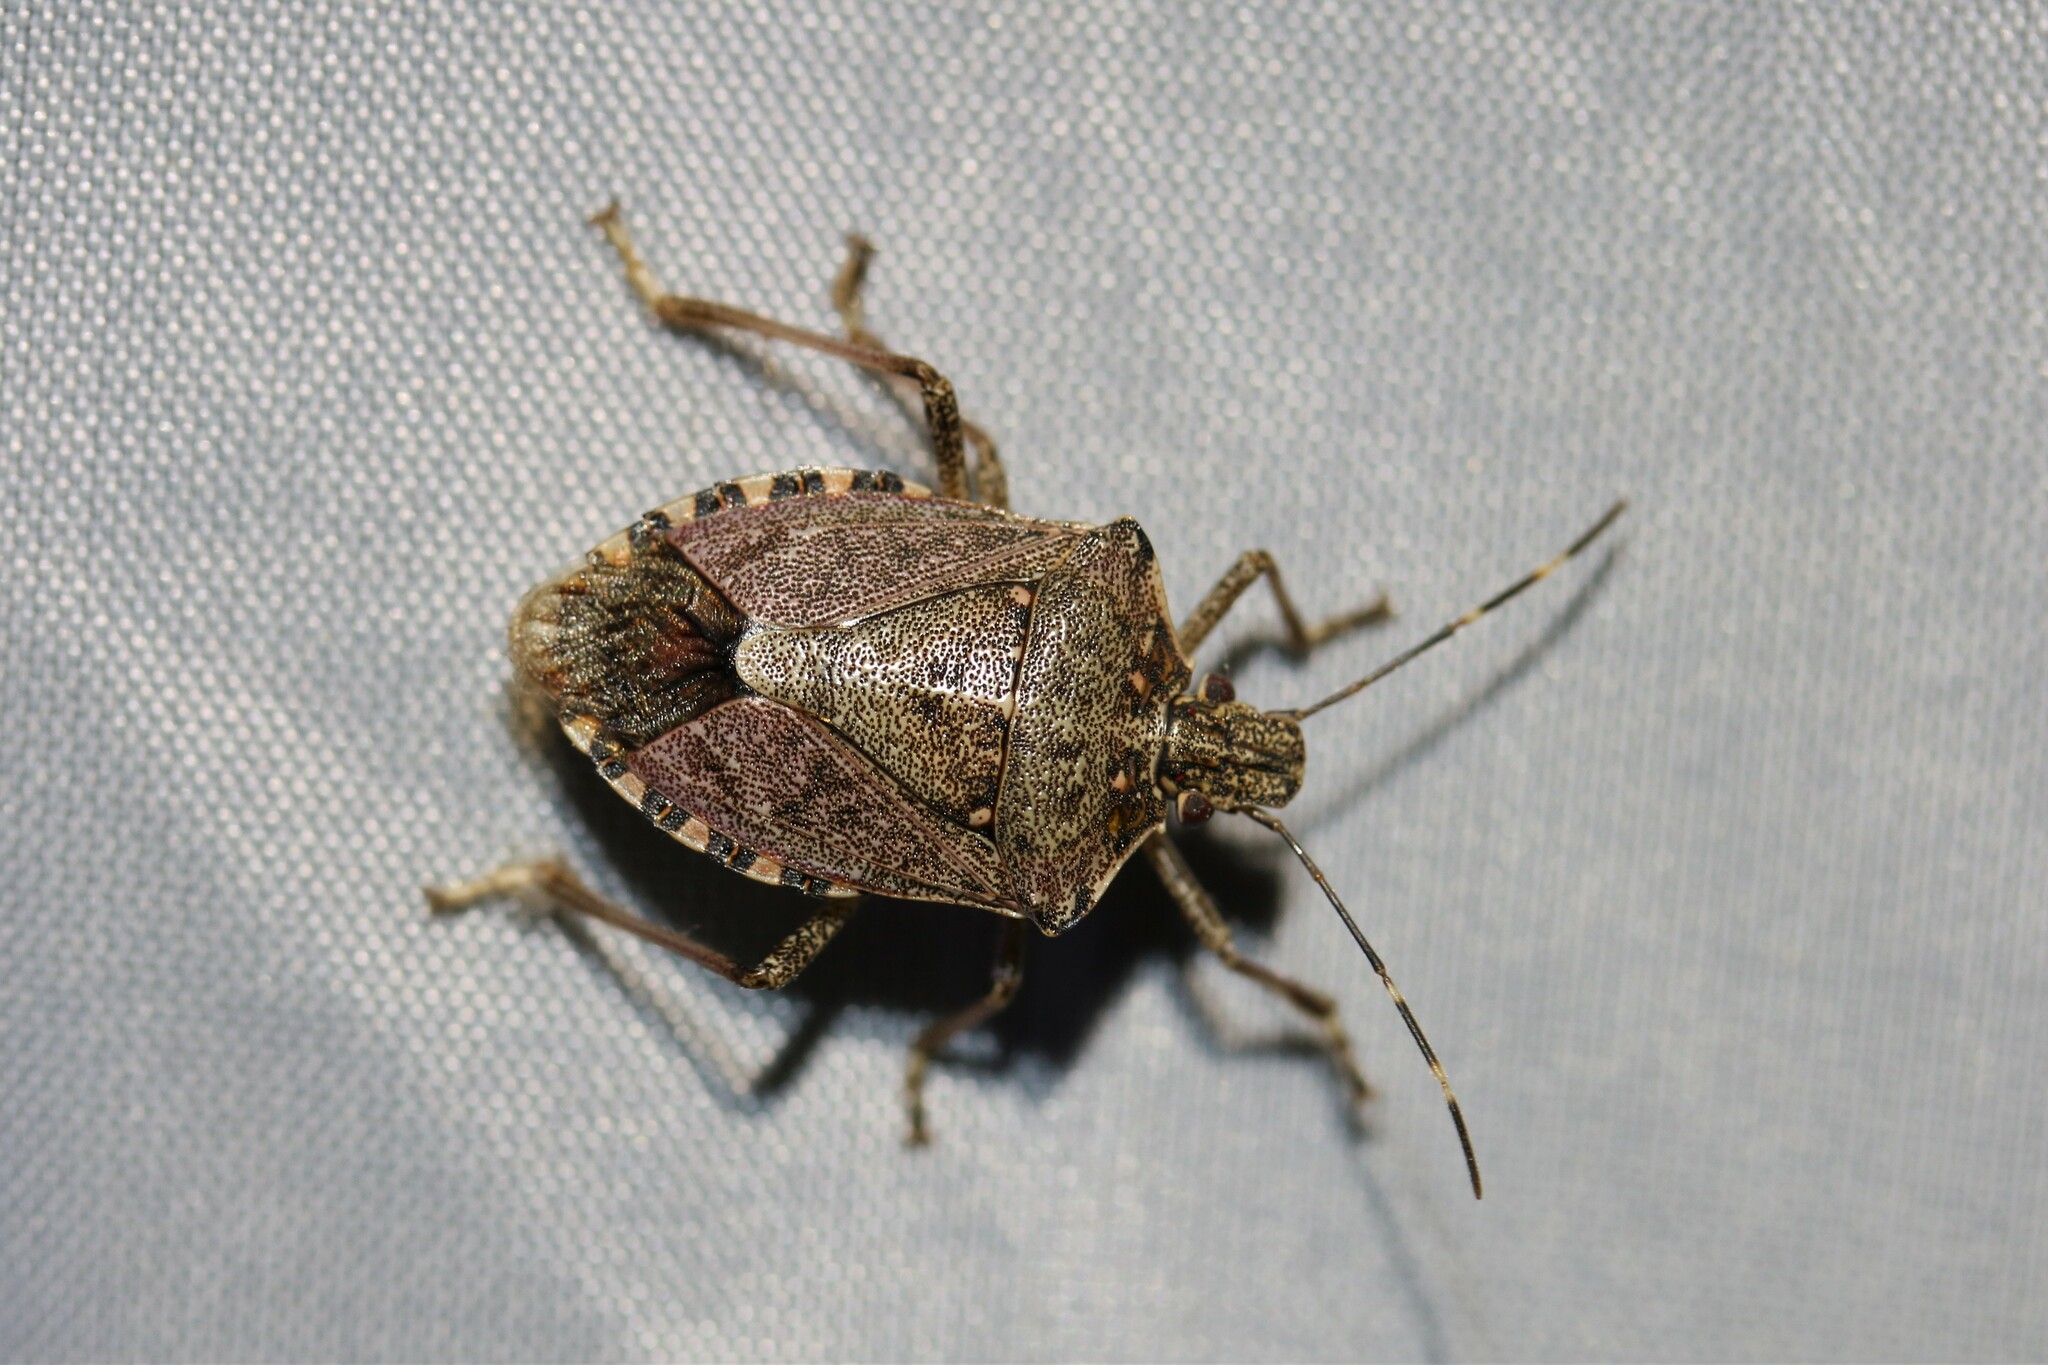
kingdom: Animalia
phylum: Arthropoda
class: Insecta
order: Hemiptera
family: Pentatomidae
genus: Halyomorpha
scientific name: Halyomorpha halys
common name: Brown marmorated stink bug
